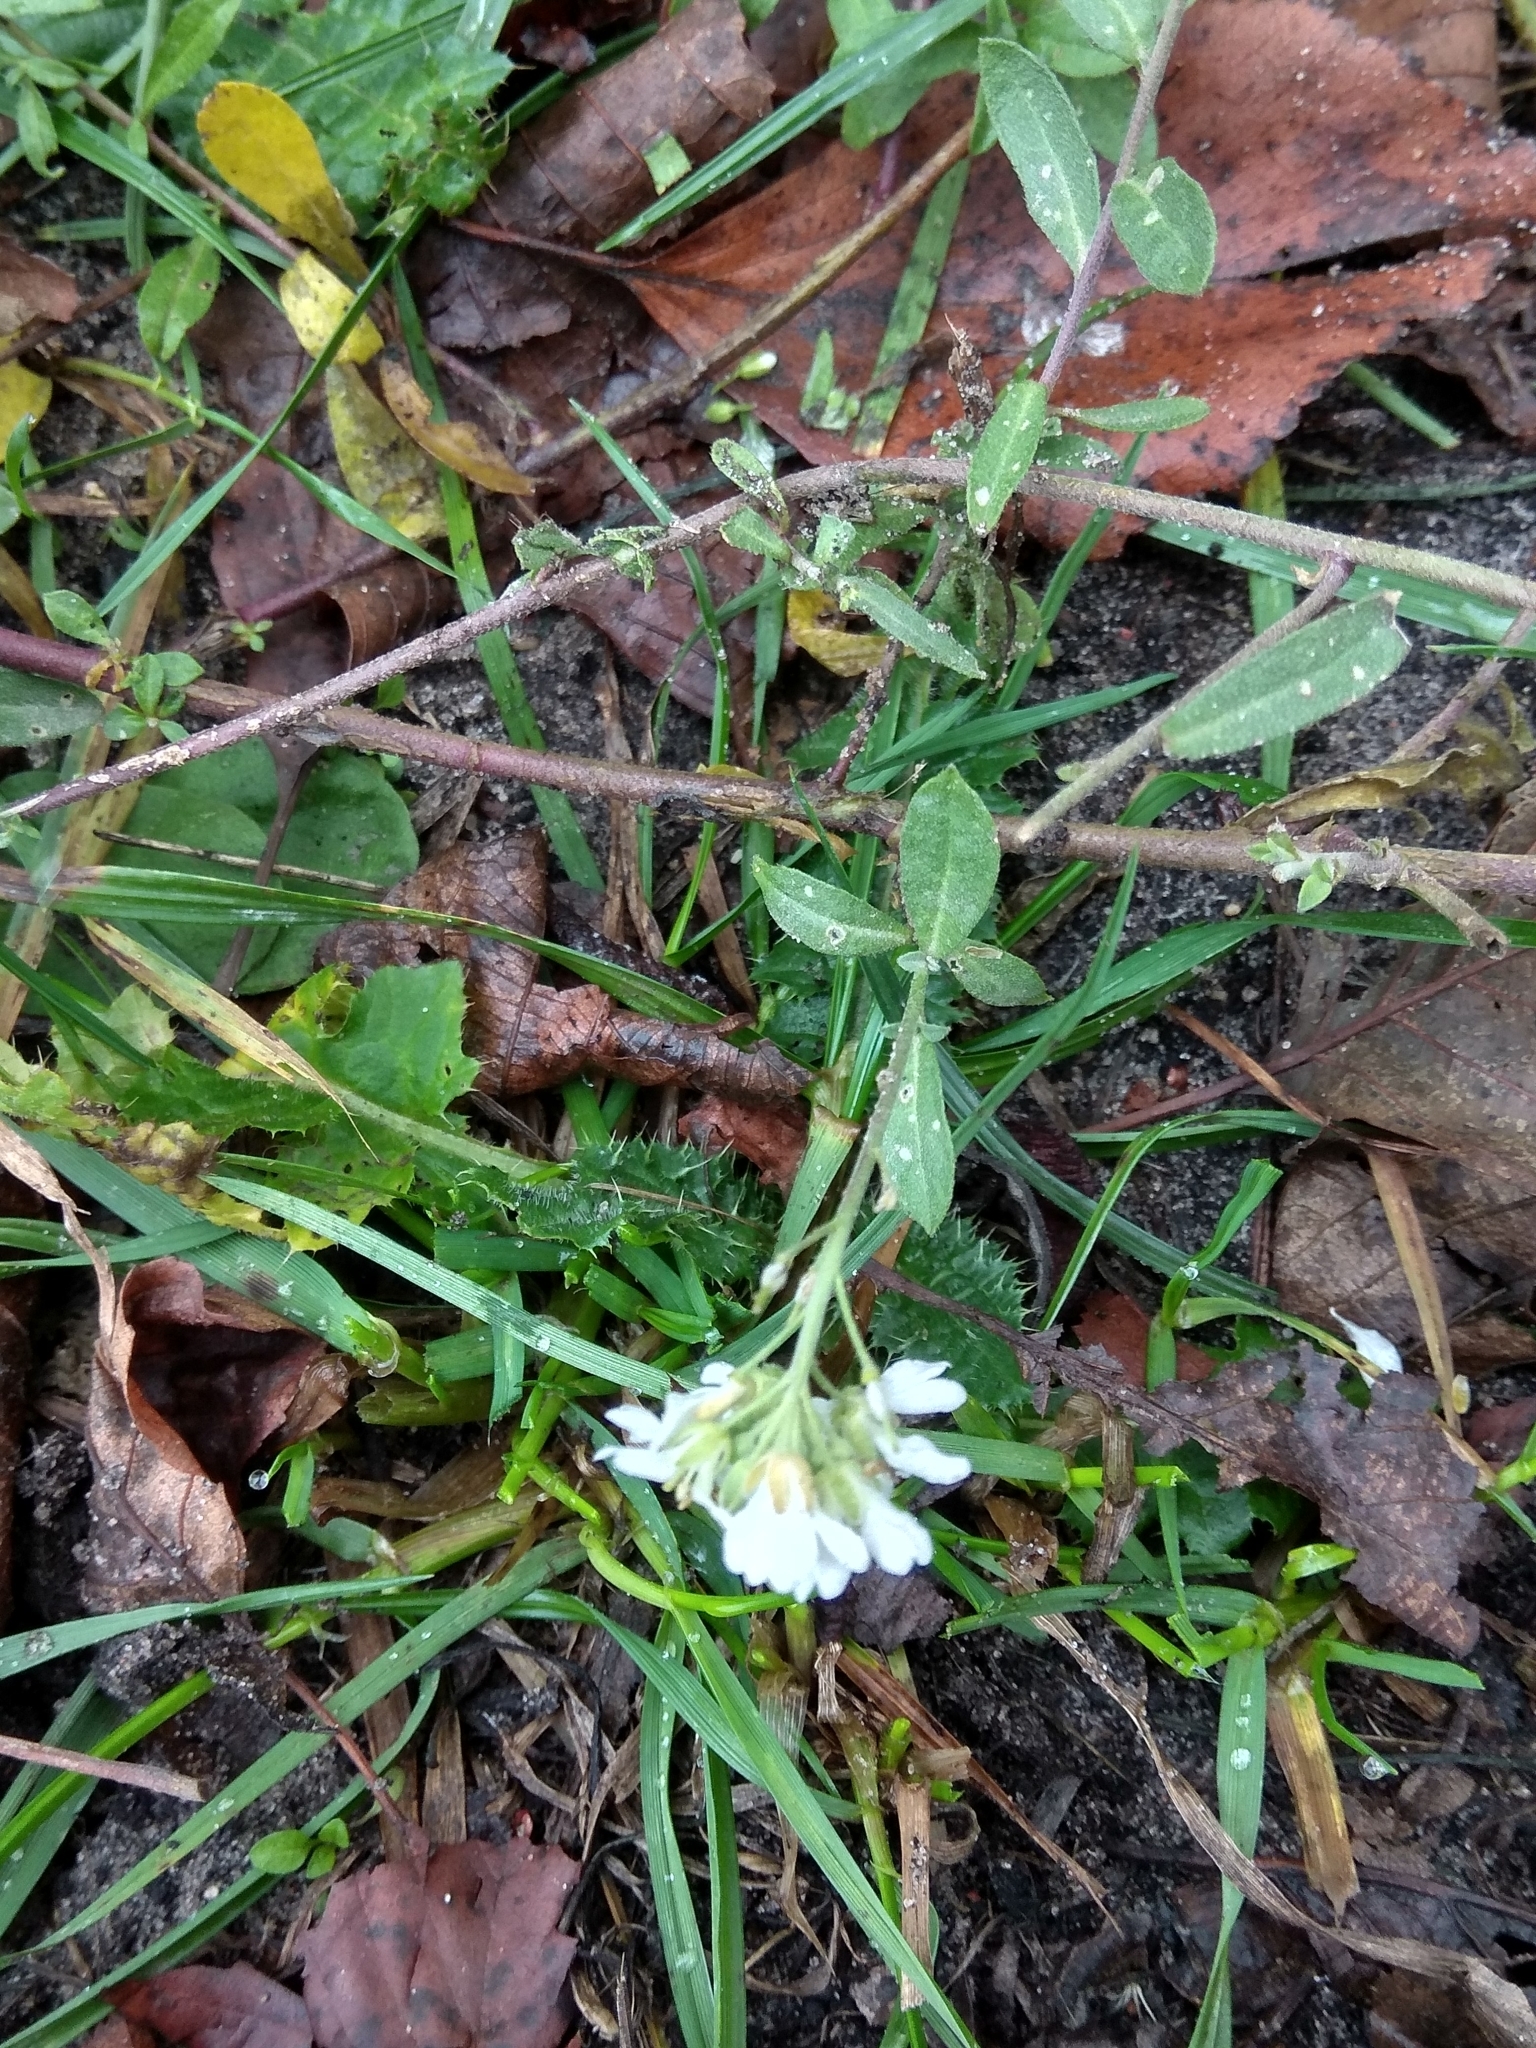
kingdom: Plantae
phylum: Tracheophyta
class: Magnoliopsida
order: Brassicales
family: Brassicaceae
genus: Berteroa
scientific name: Berteroa incana
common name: Hoary alison
